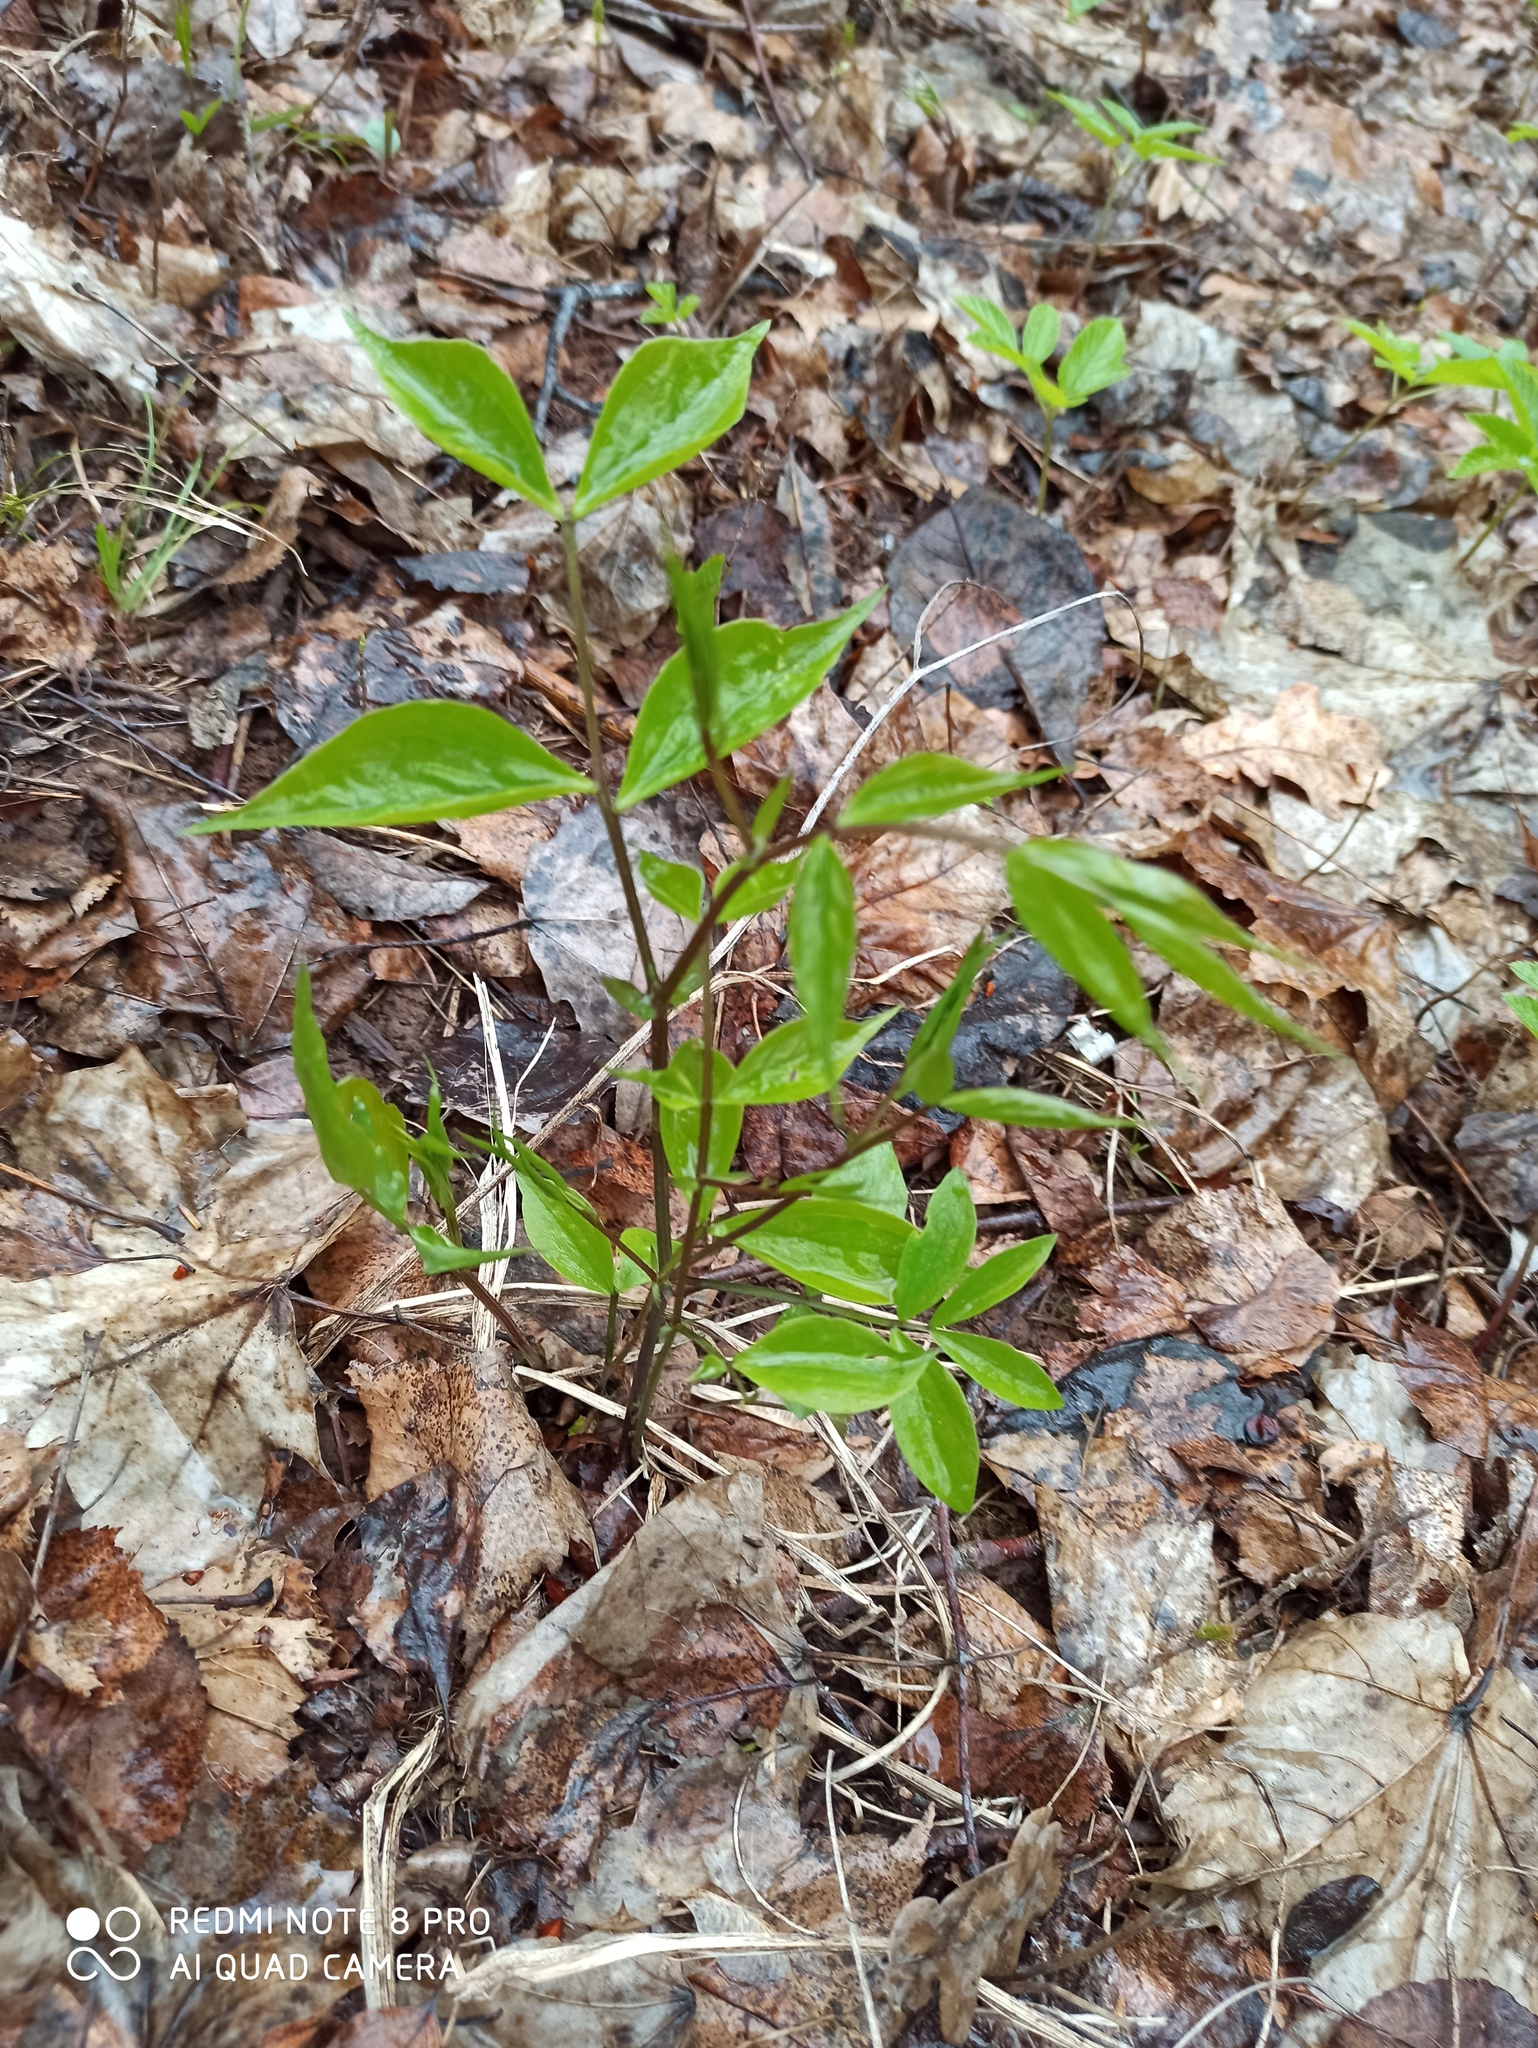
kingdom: Plantae
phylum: Tracheophyta
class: Magnoliopsida
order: Fabales
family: Fabaceae
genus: Lathyrus
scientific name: Lathyrus vernus
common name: Spring pea
